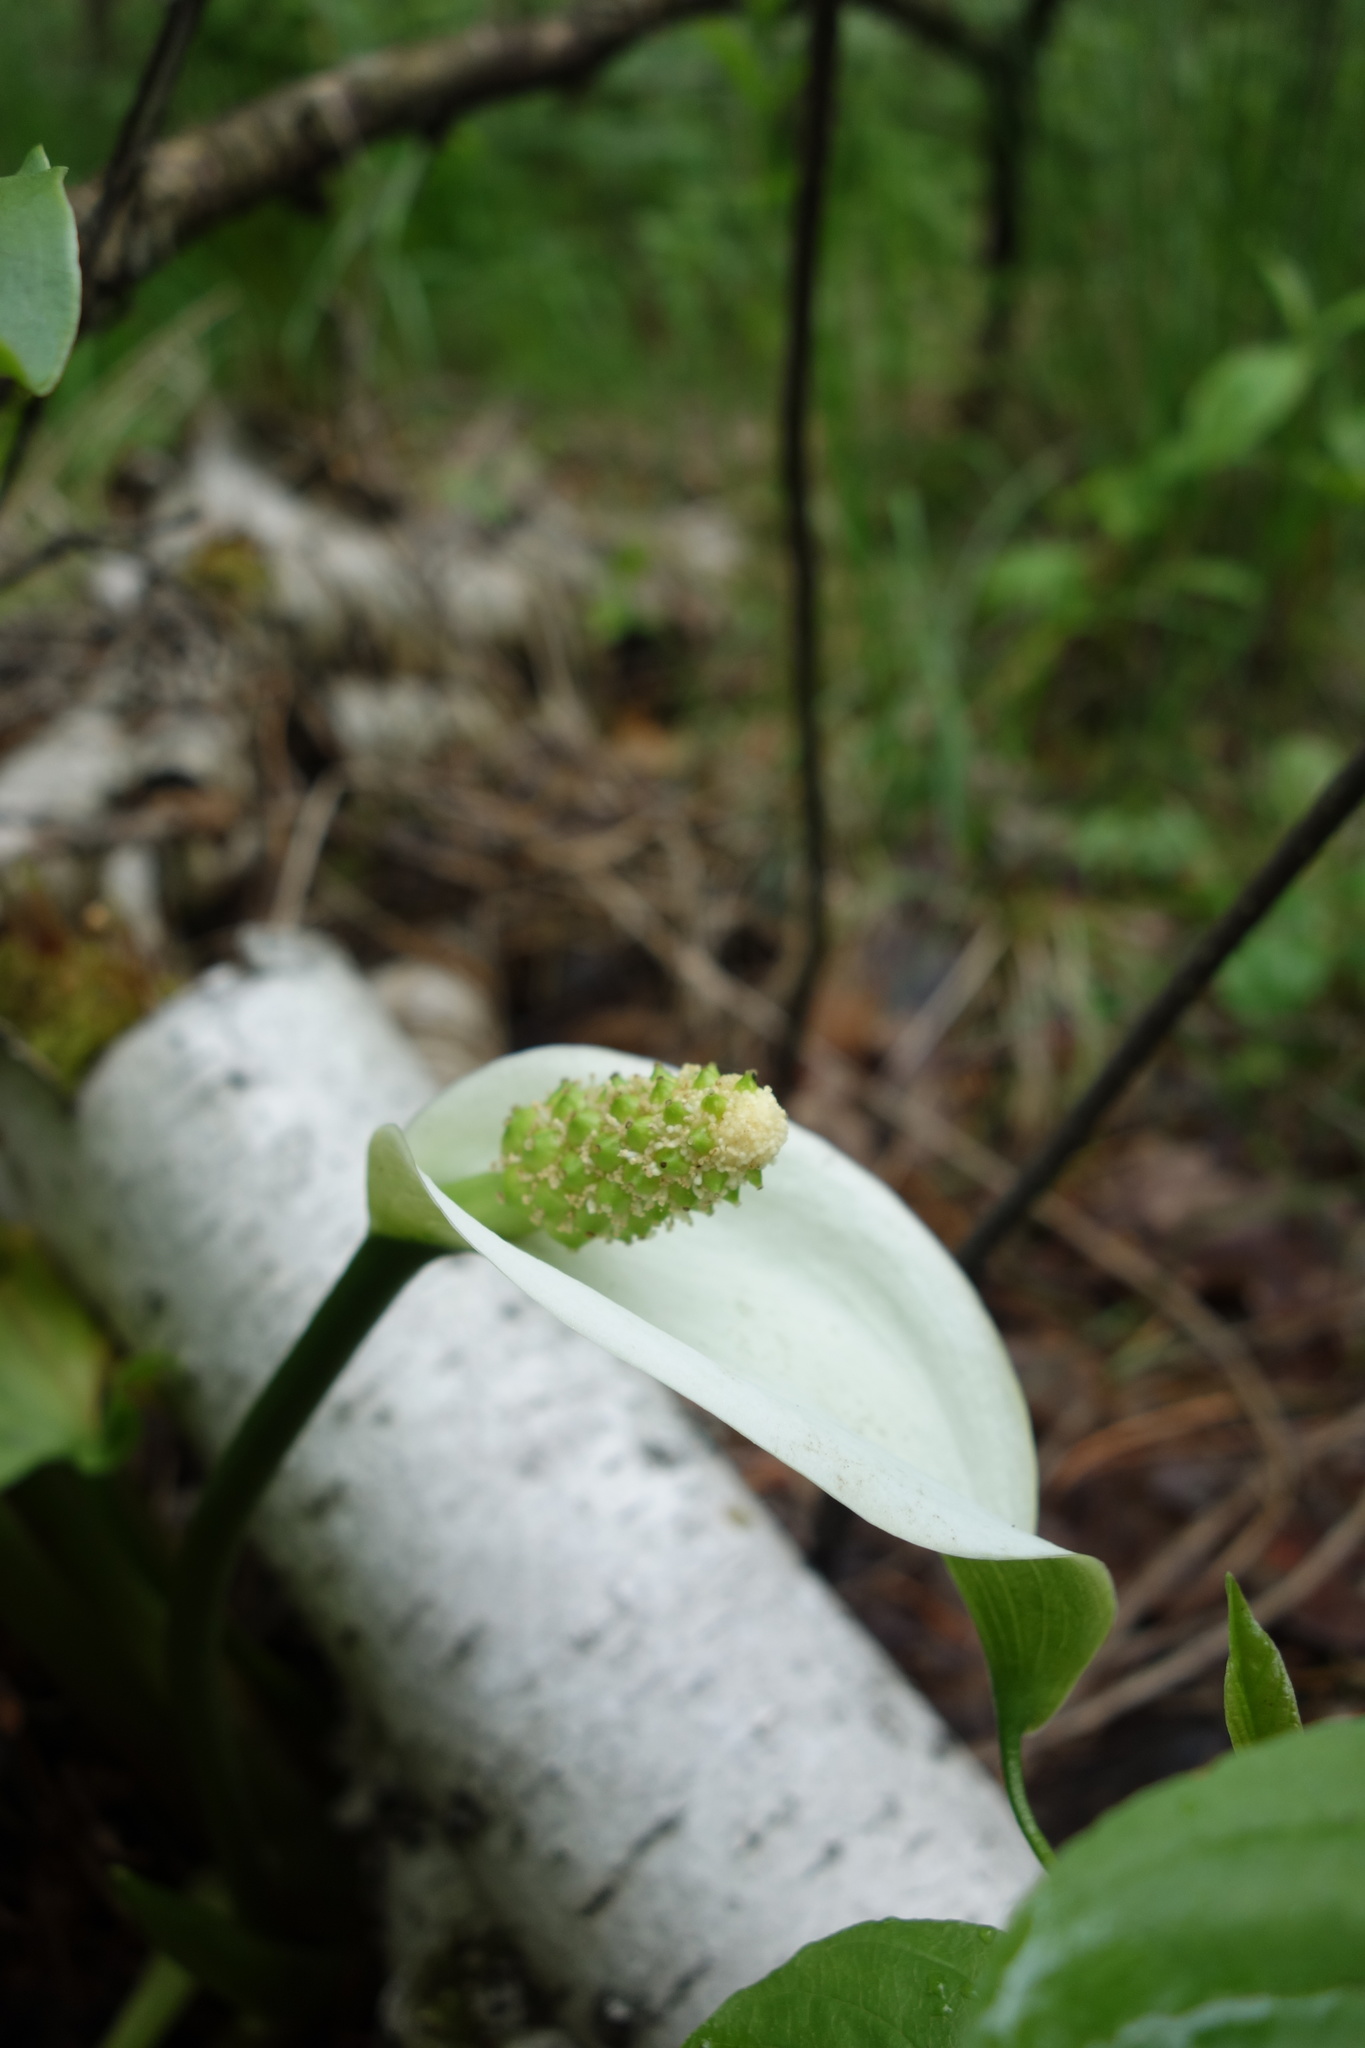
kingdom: Plantae
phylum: Tracheophyta
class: Liliopsida
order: Alismatales
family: Araceae
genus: Calla
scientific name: Calla palustris
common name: Bog arum
